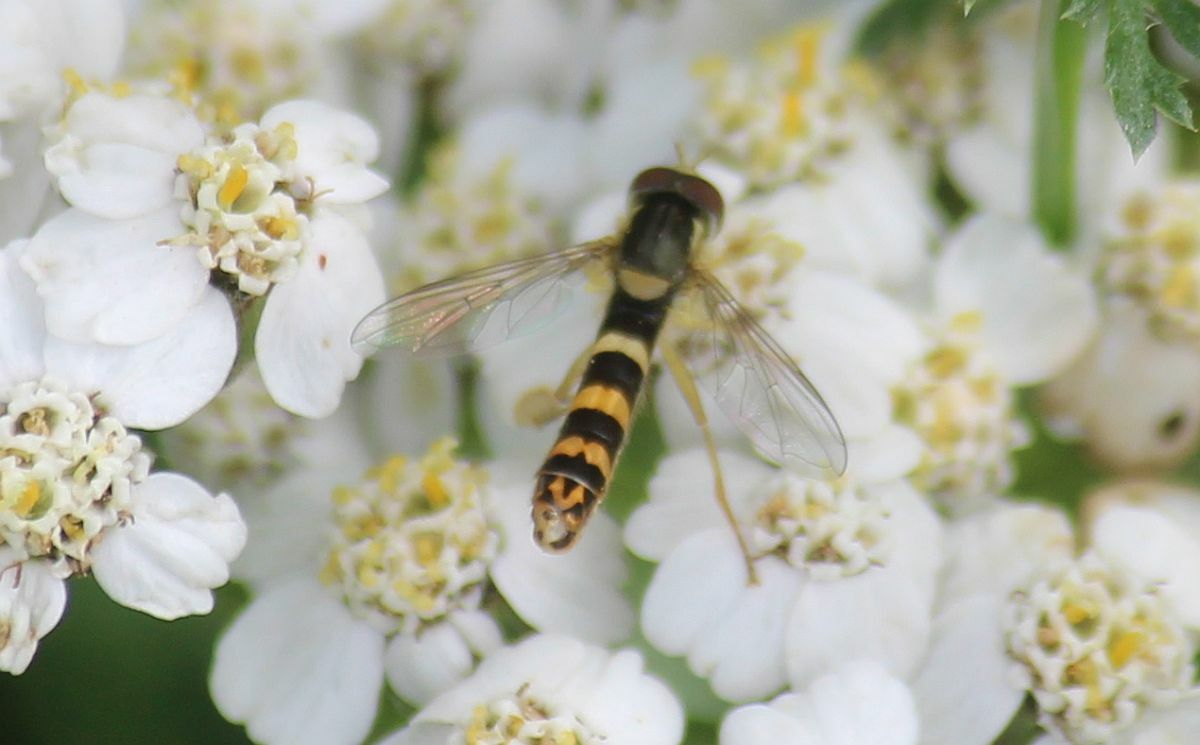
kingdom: Animalia
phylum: Arthropoda
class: Insecta
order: Diptera
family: Syrphidae
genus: Sphaerophoria
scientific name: Sphaerophoria scripta
